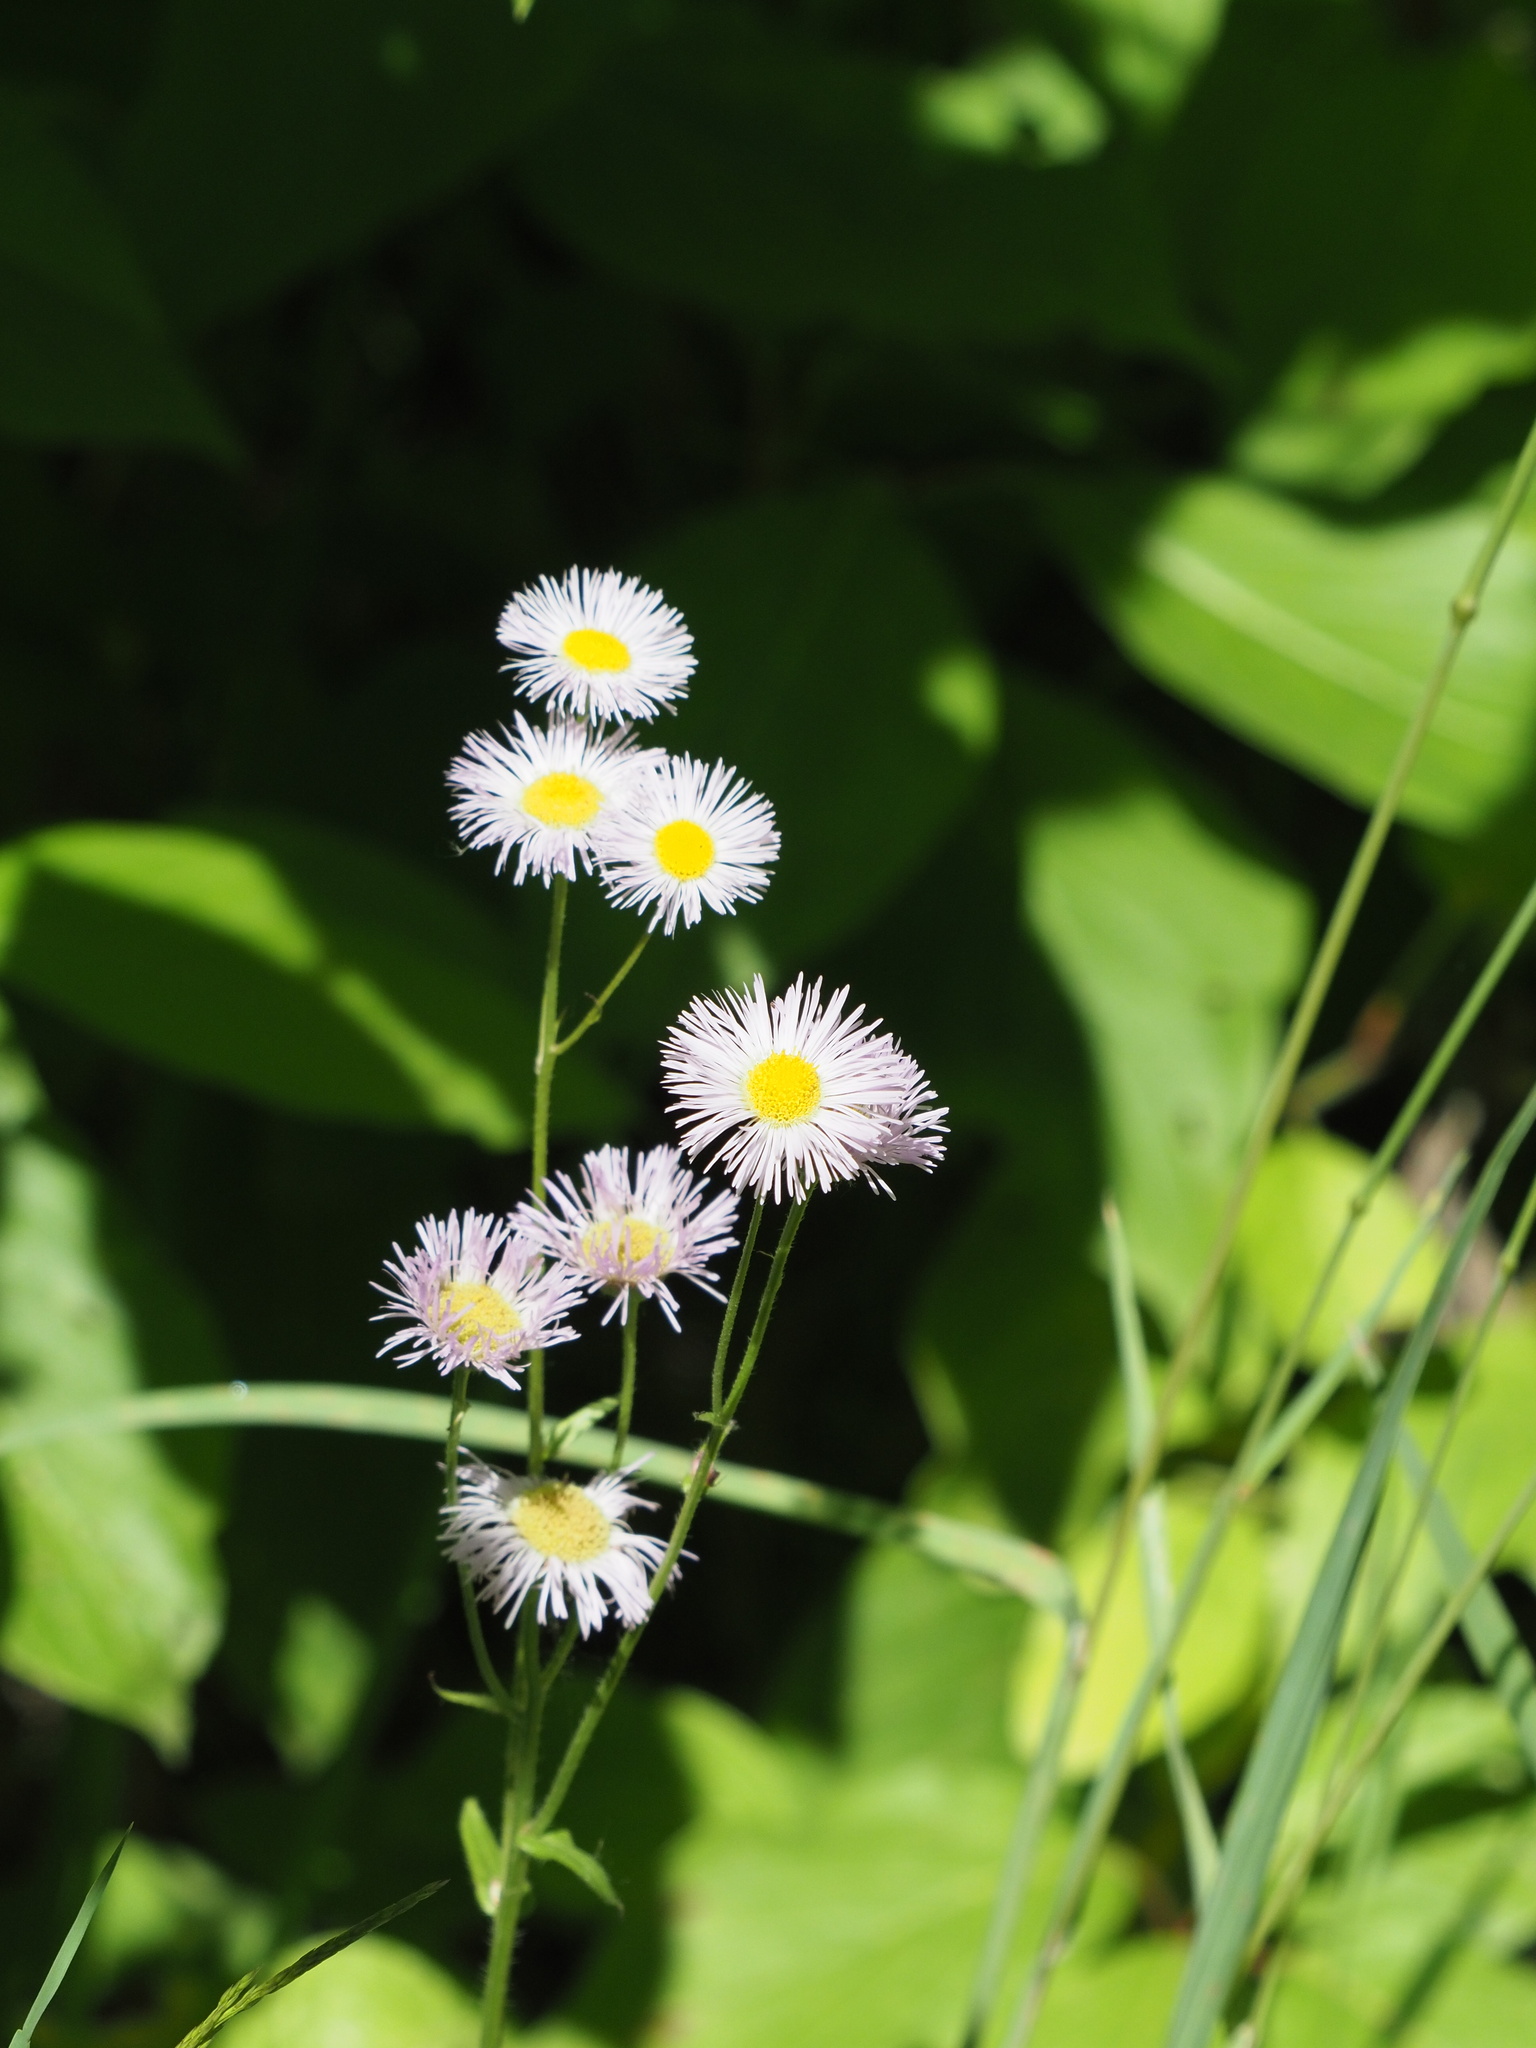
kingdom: Plantae
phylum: Tracheophyta
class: Magnoliopsida
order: Asterales
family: Asteraceae
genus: Erigeron
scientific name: Erigeron philadelphicus
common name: Robin's-plantain
